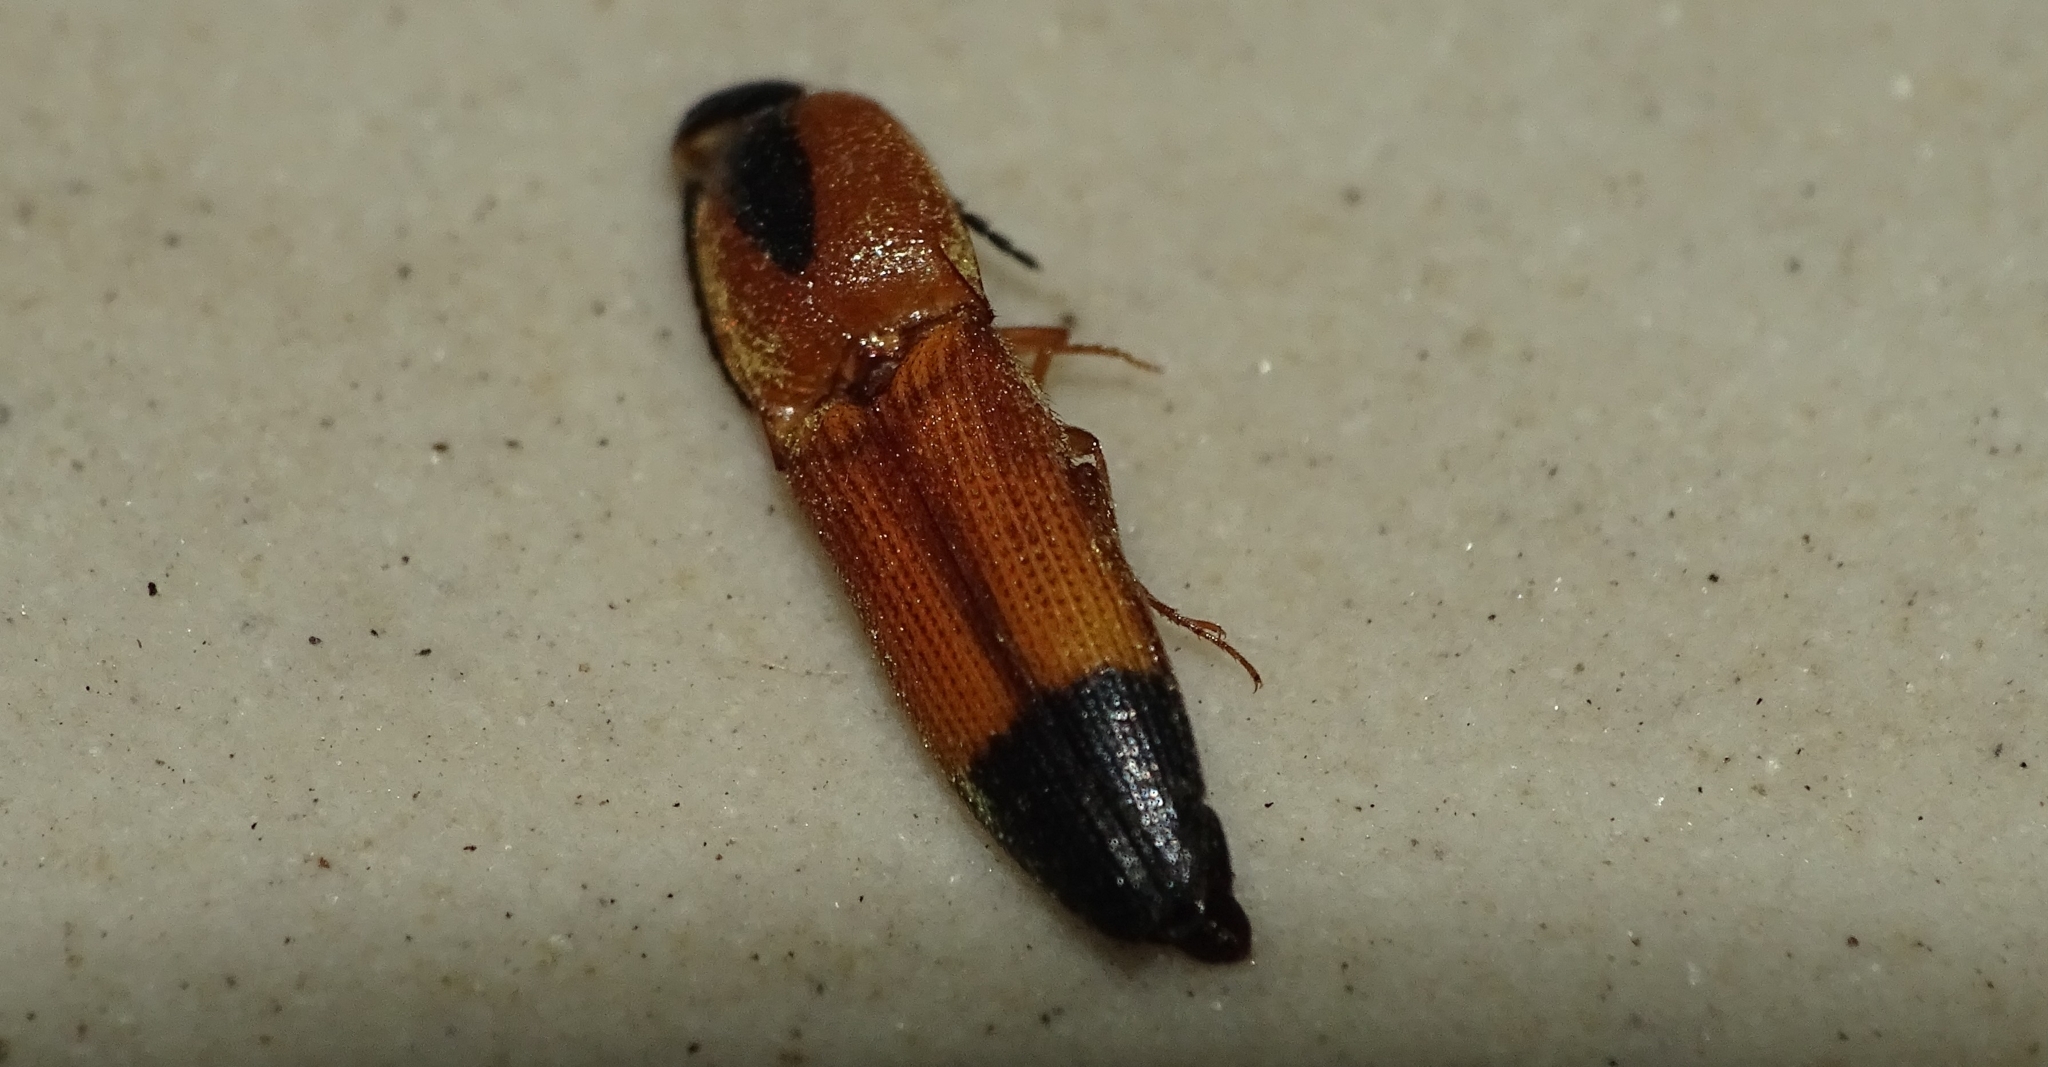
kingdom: Animalia
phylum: Arthropoda
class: Insecta
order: Coleoptera
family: Elateridae
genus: Melanoxanthus
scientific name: Melanoxanthus melanocephalus
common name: Click beetle
